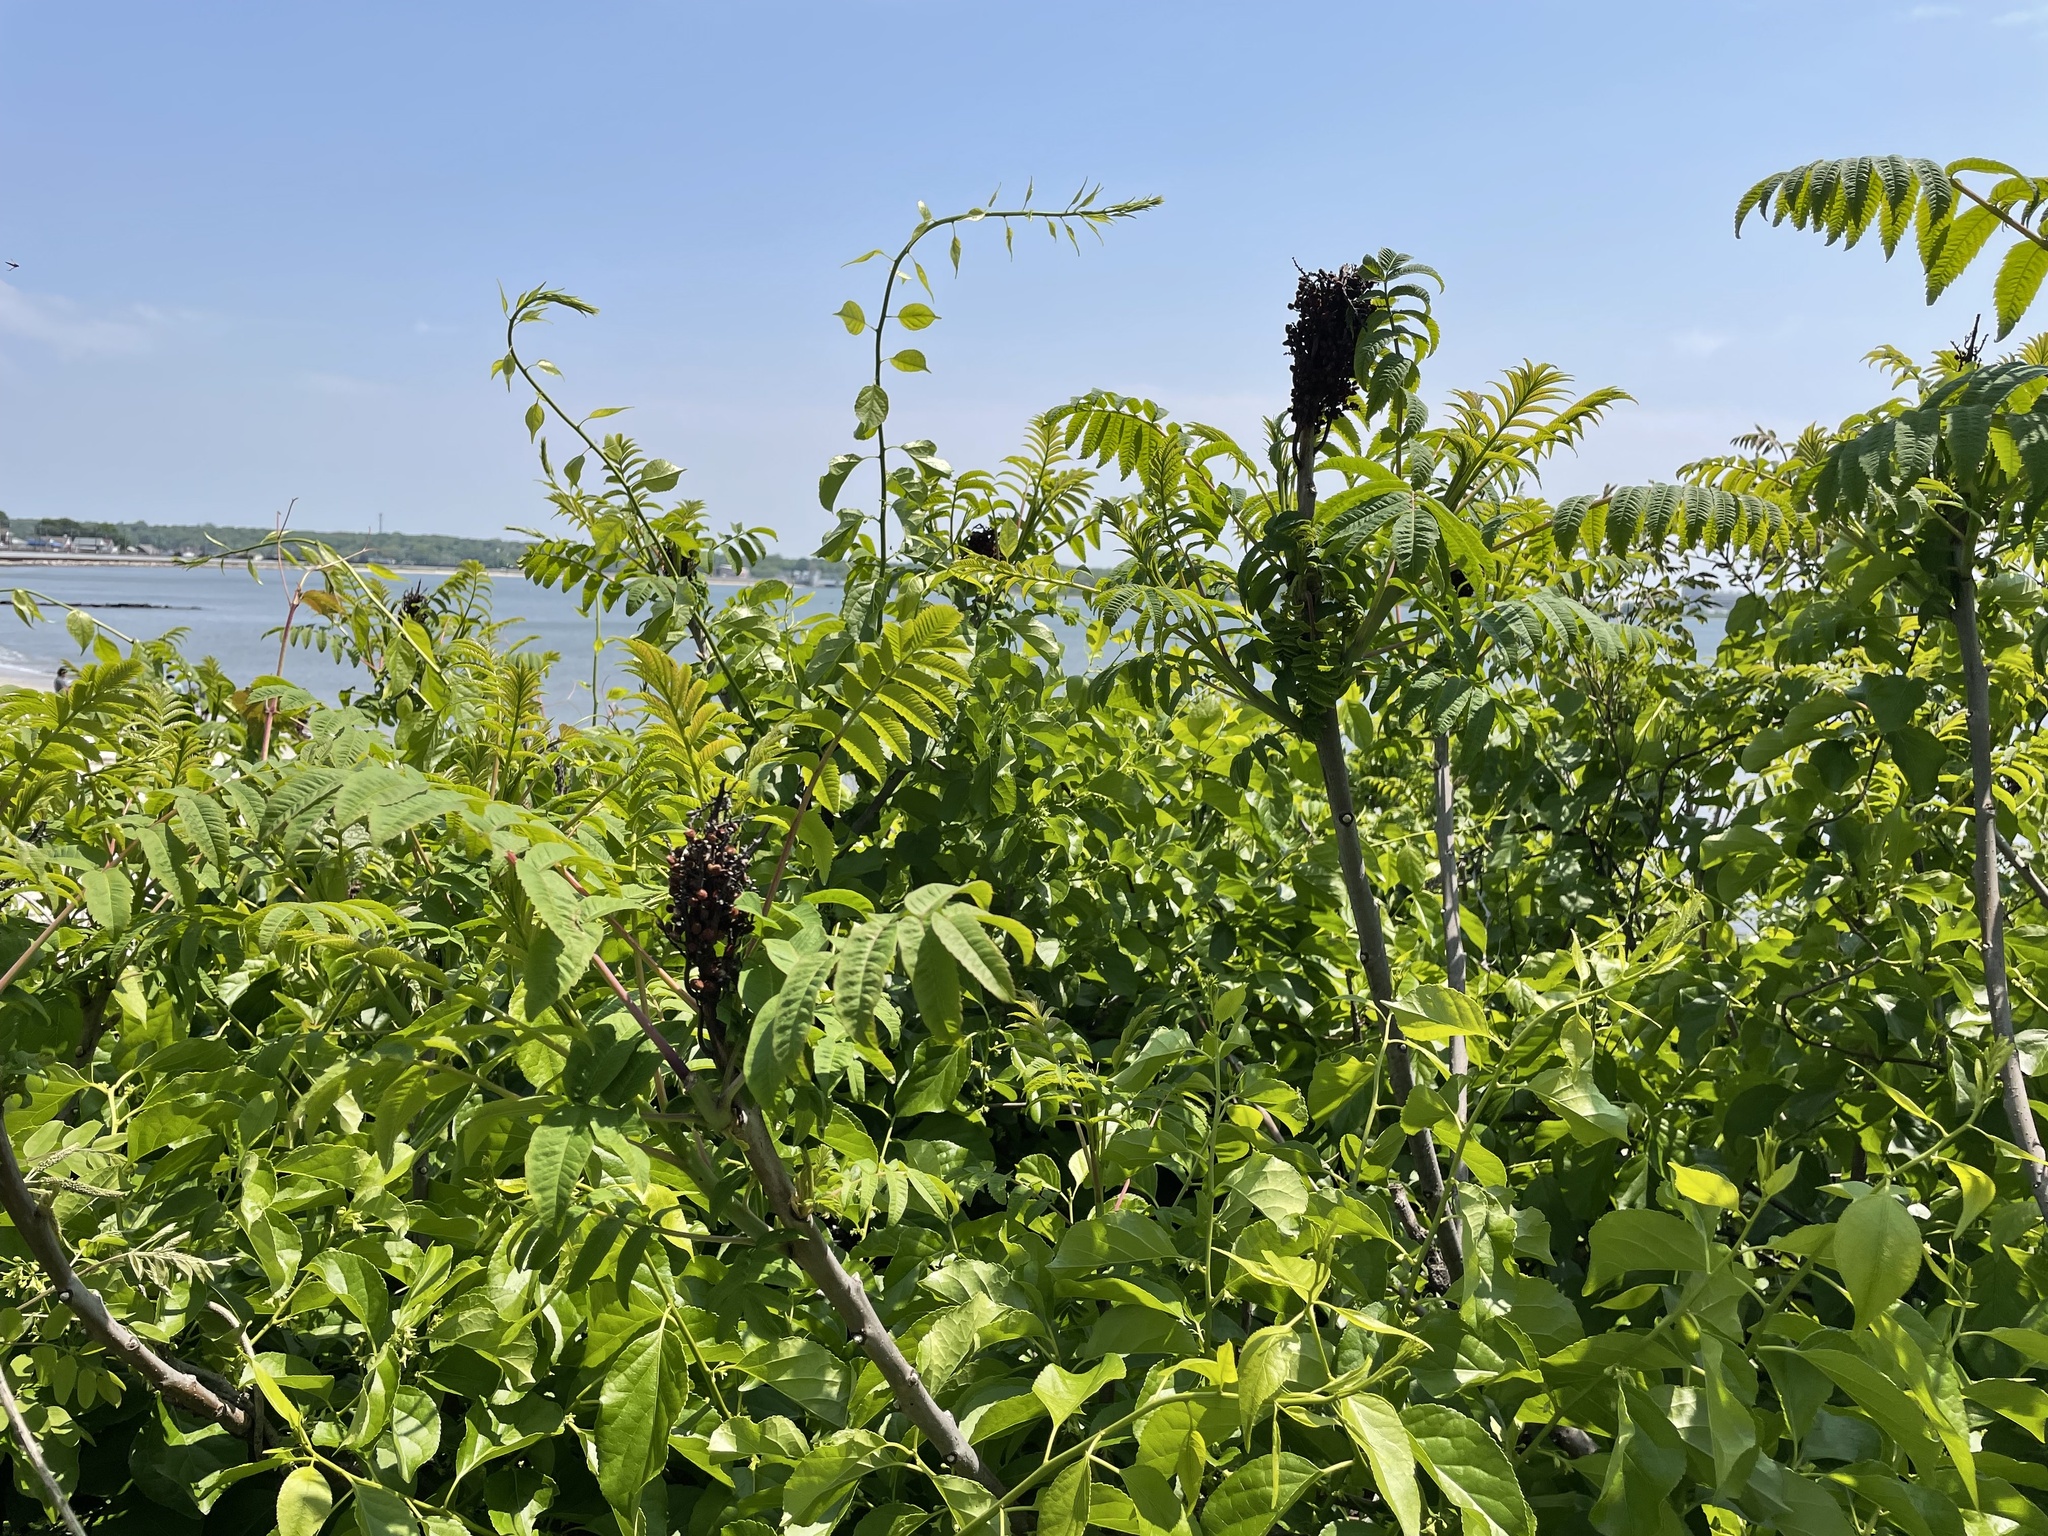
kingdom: Plantae
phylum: Tracheophyta
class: Magnoliopsida
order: Sapindales
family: Anacardiaceae
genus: Rhus
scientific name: Rhus glabra
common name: Scarlet sumac
